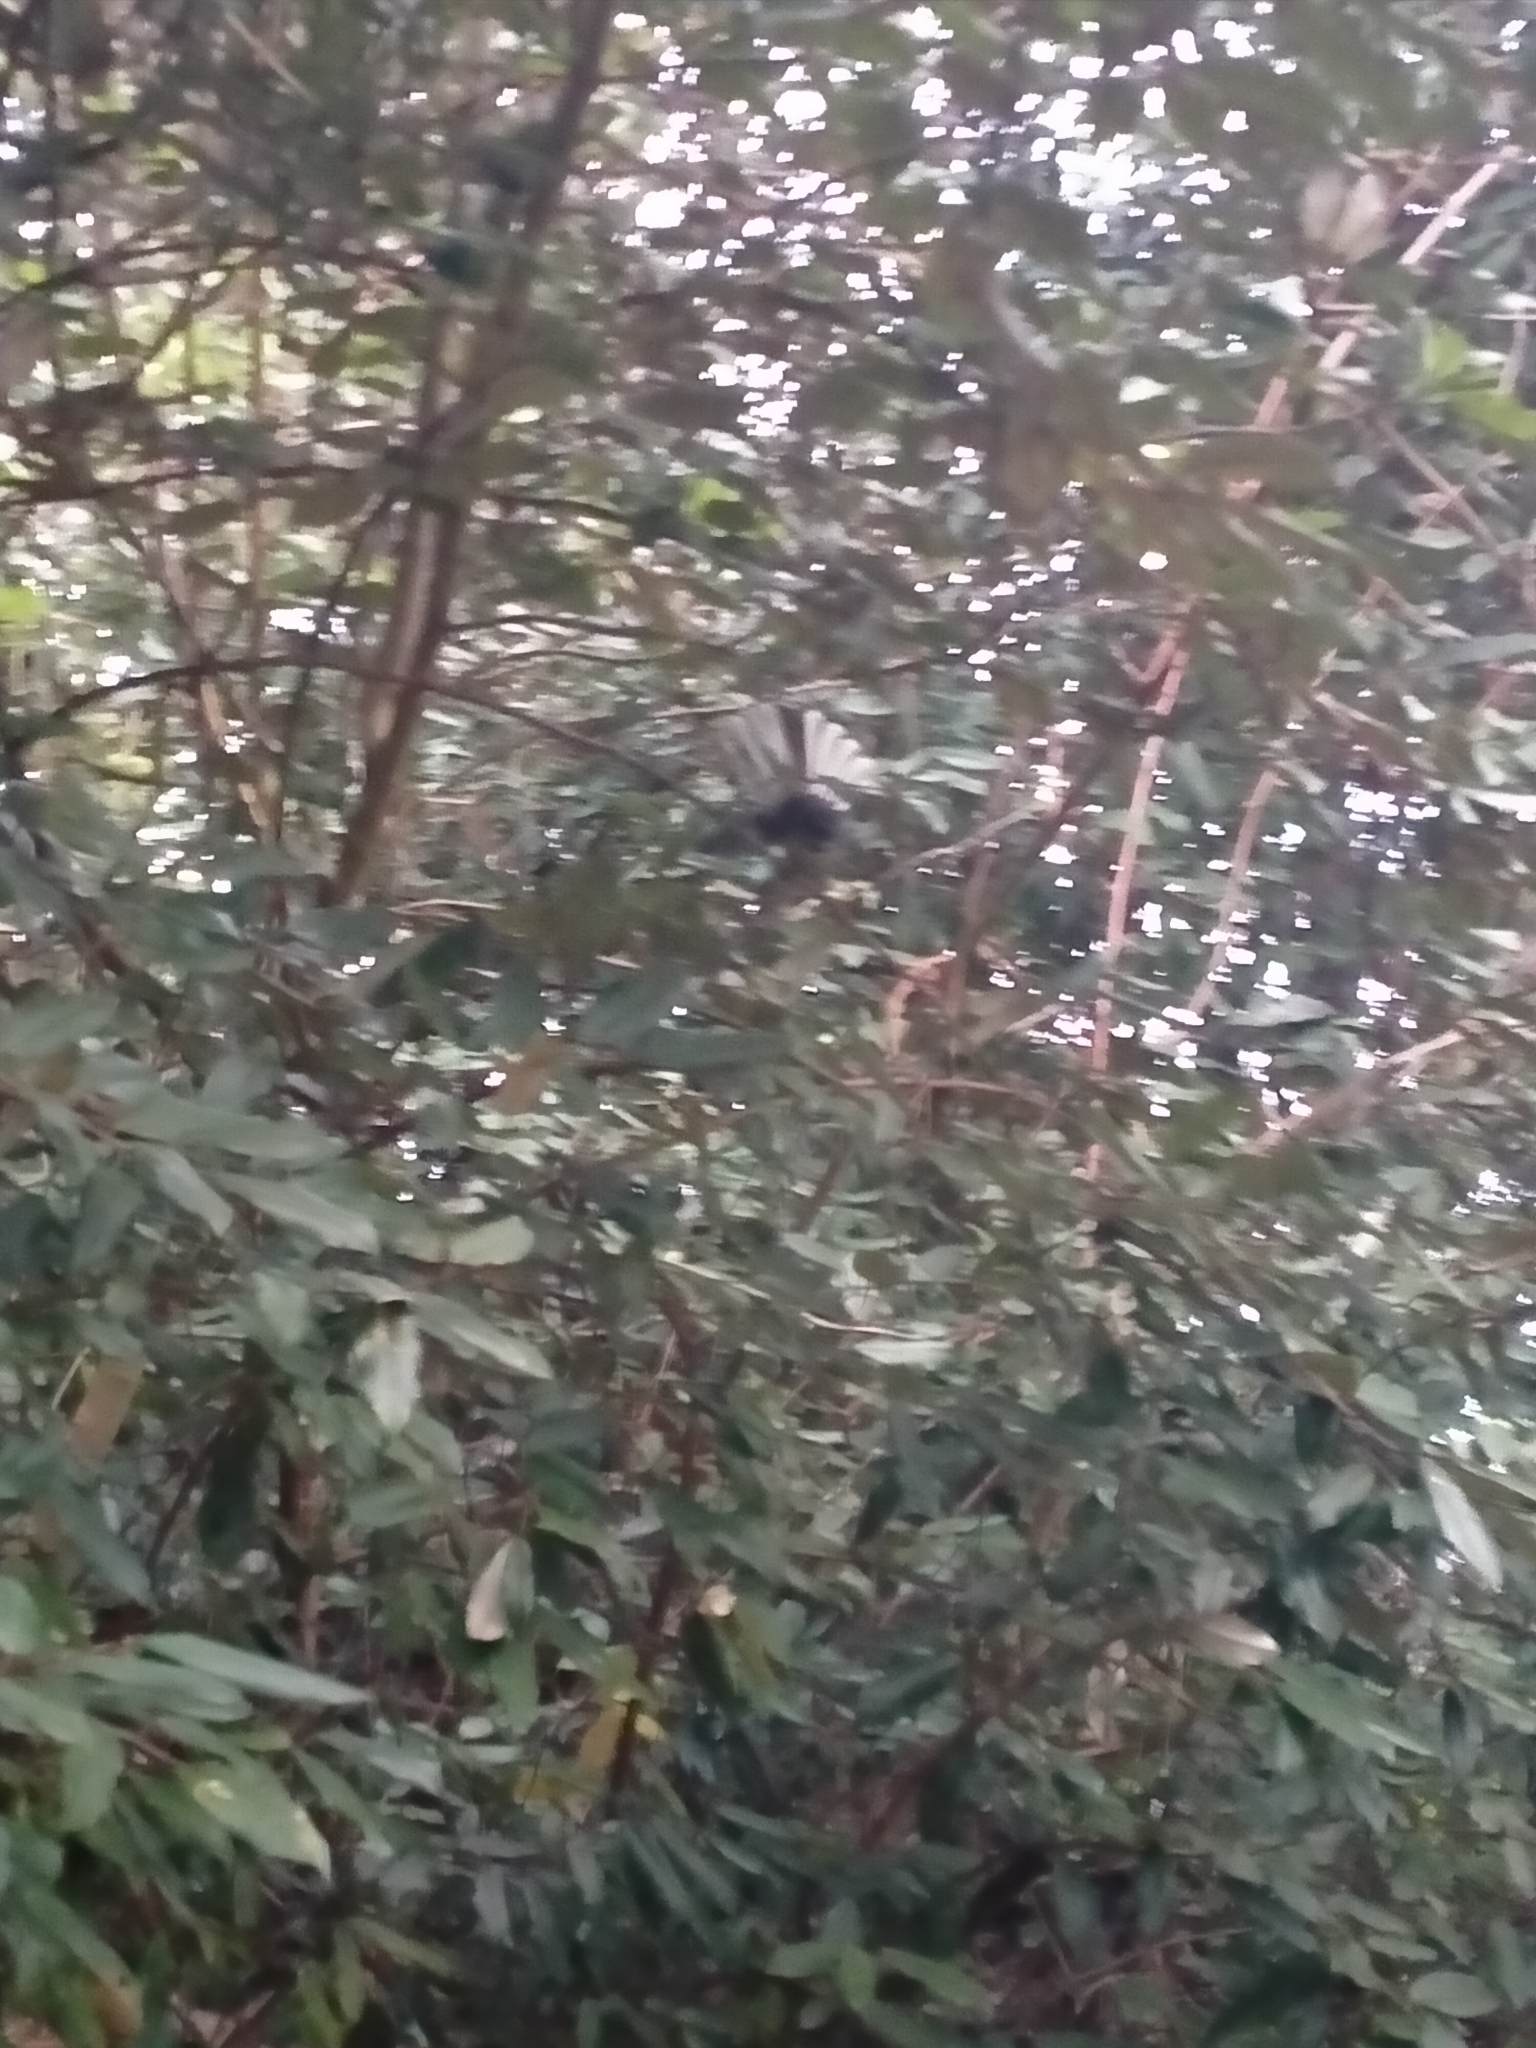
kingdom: Animalia
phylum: Chordata
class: Aves
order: Passeriformes
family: Rhipiduridae
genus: Rhipidura
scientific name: Rhipidura fuliginosa
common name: New zealand fantail
